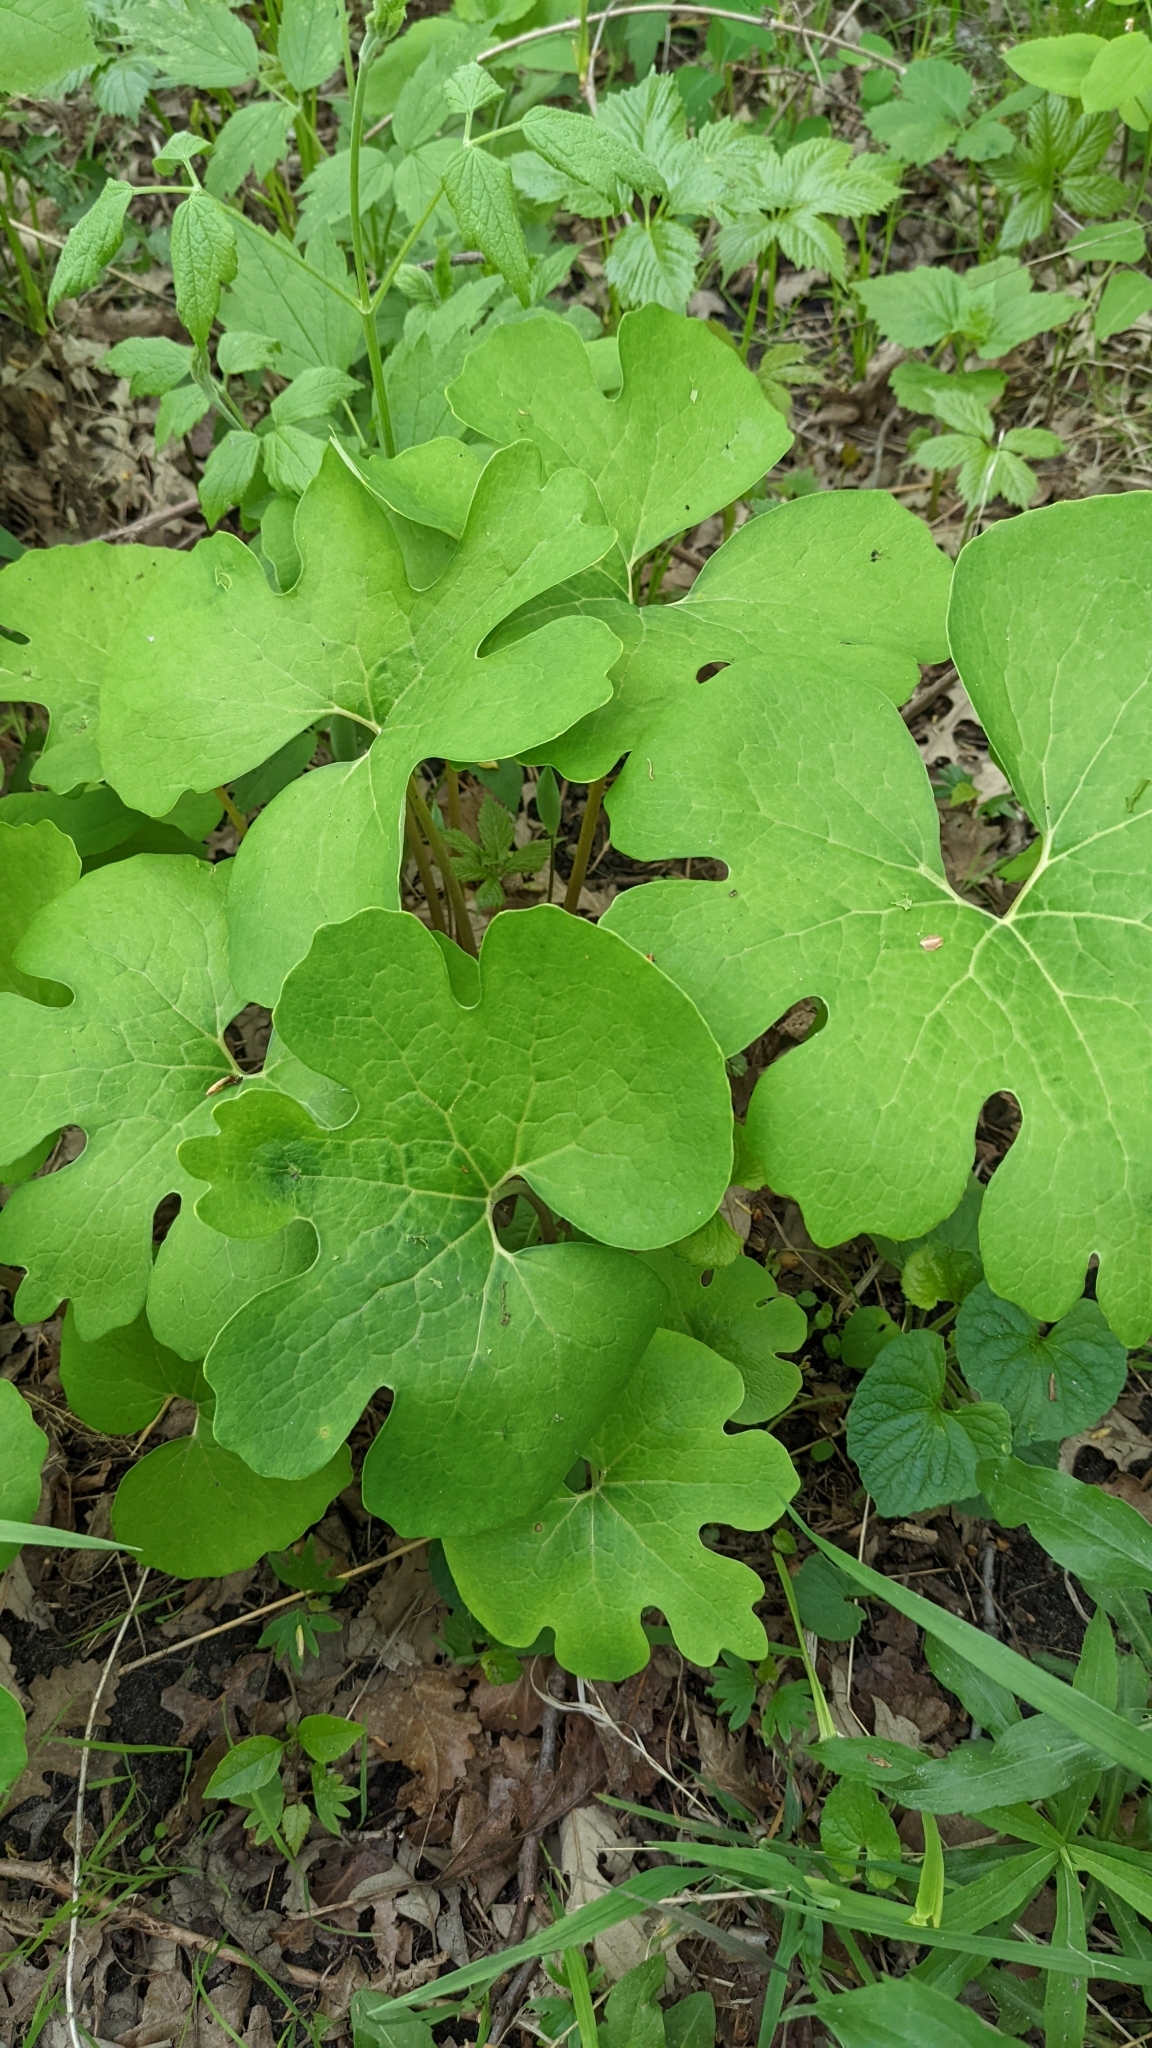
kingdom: Plantae
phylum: Tracheophyta
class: Magnoliopsida
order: Ranunculales
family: Papaveraceae
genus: Sanguinaria
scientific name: Sanguinaria canadensis
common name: Bloodroot
